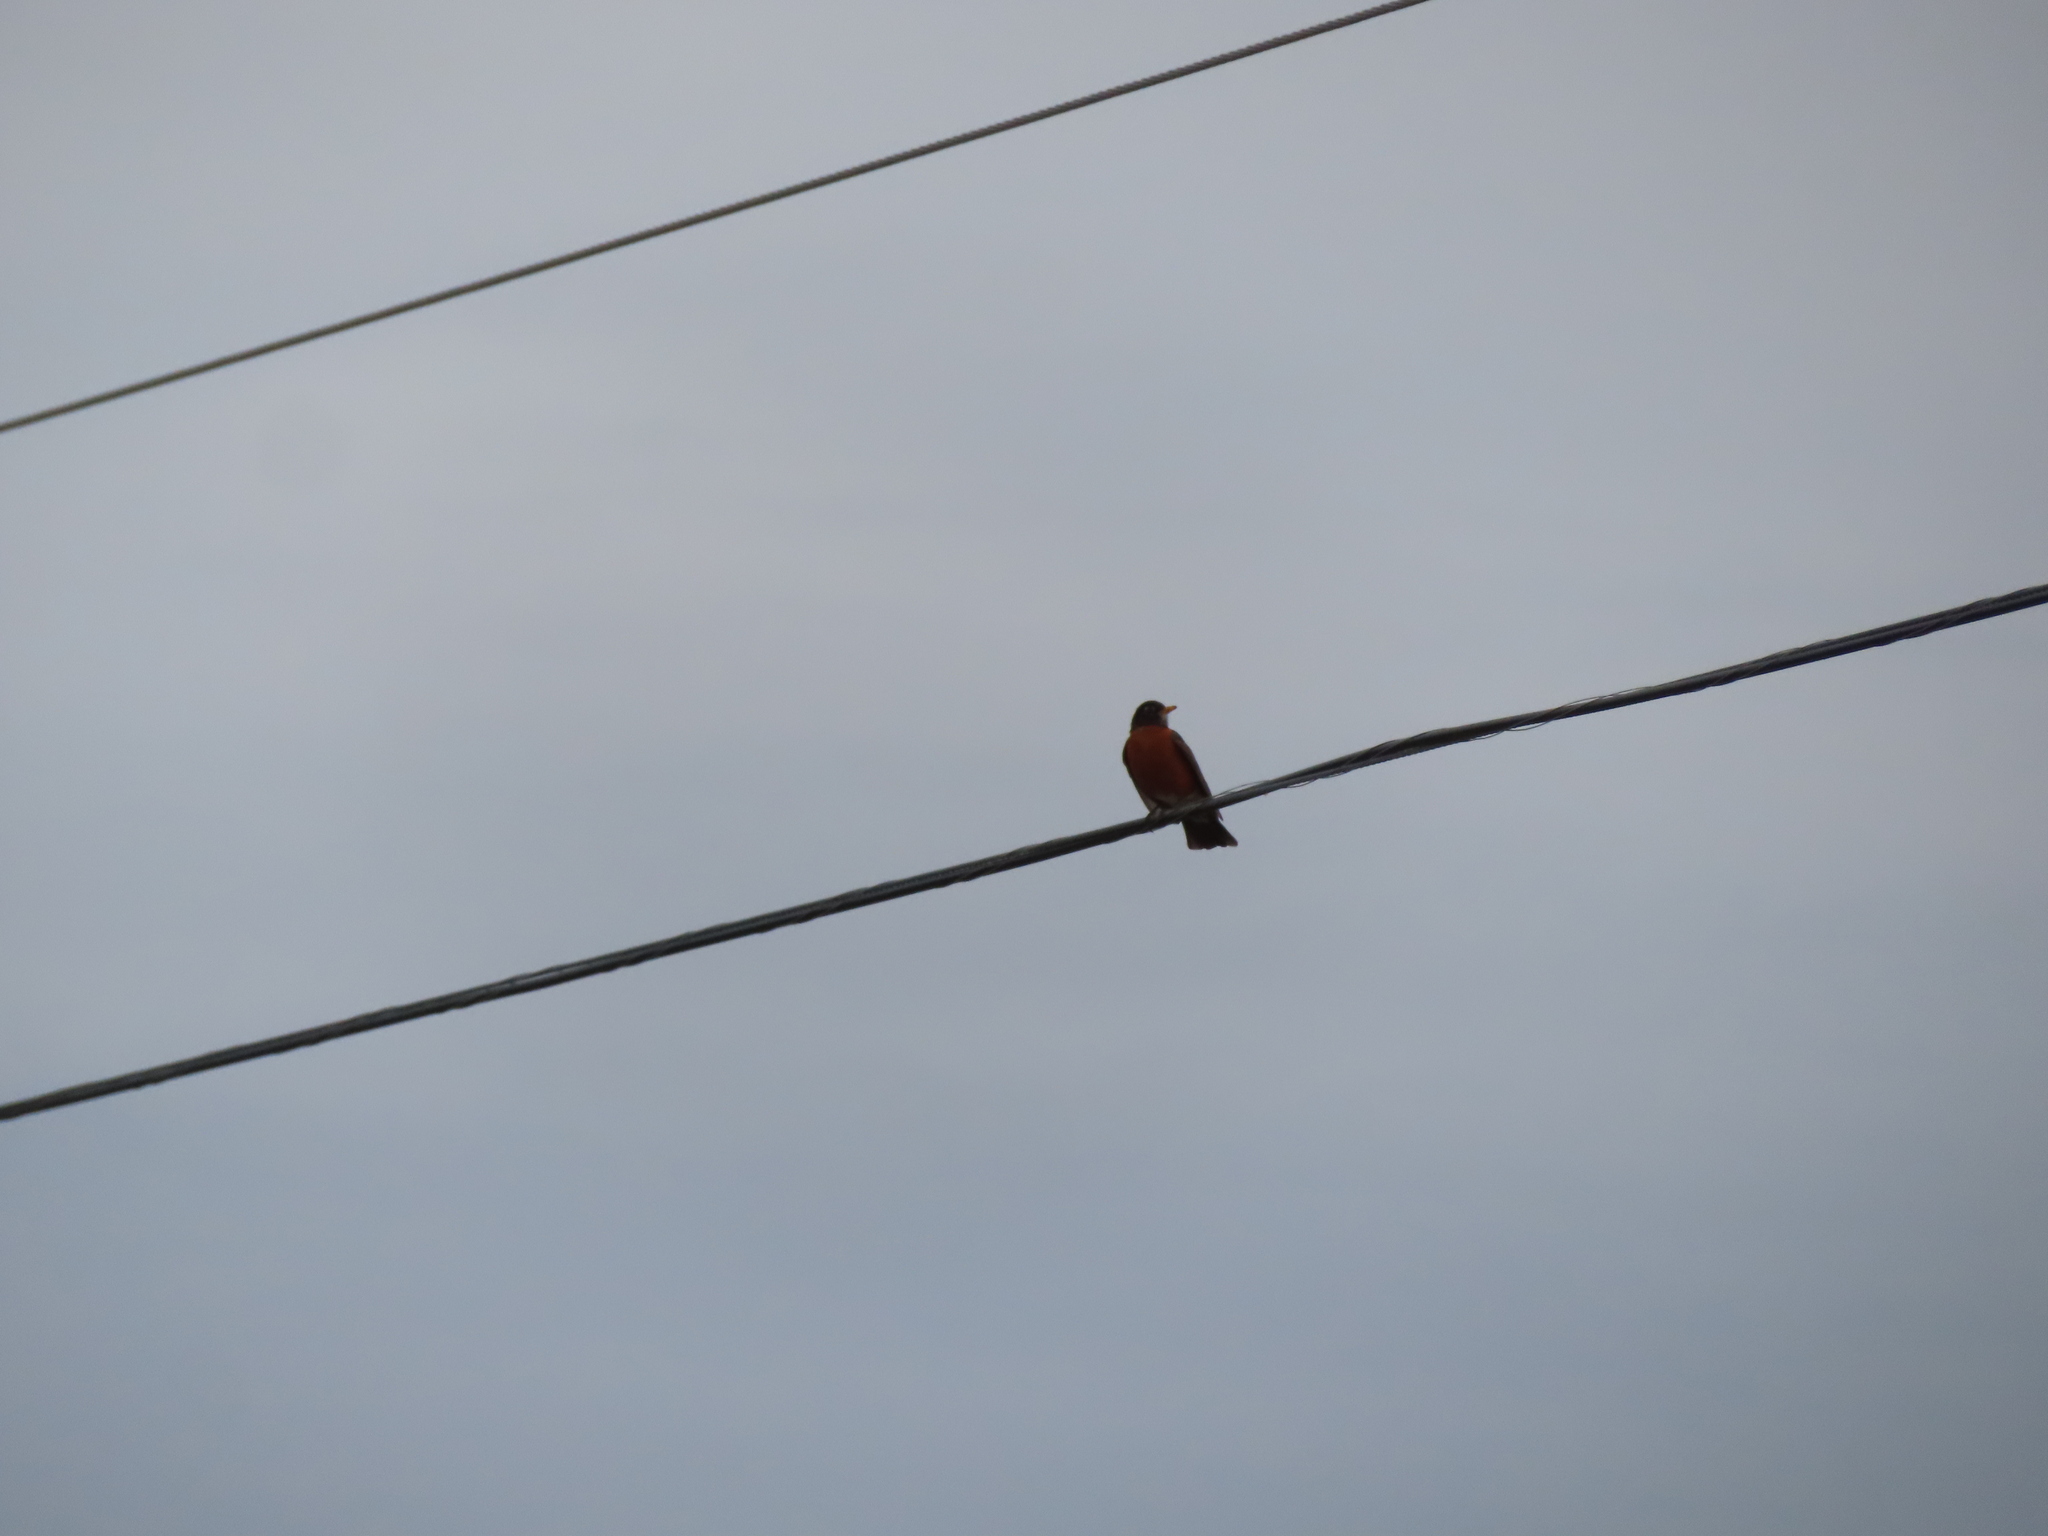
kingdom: Animalia
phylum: Chordata
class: Aves
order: Passeriformes
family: Turdidae
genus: Turdus
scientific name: Turdus migratorius
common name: American robin
